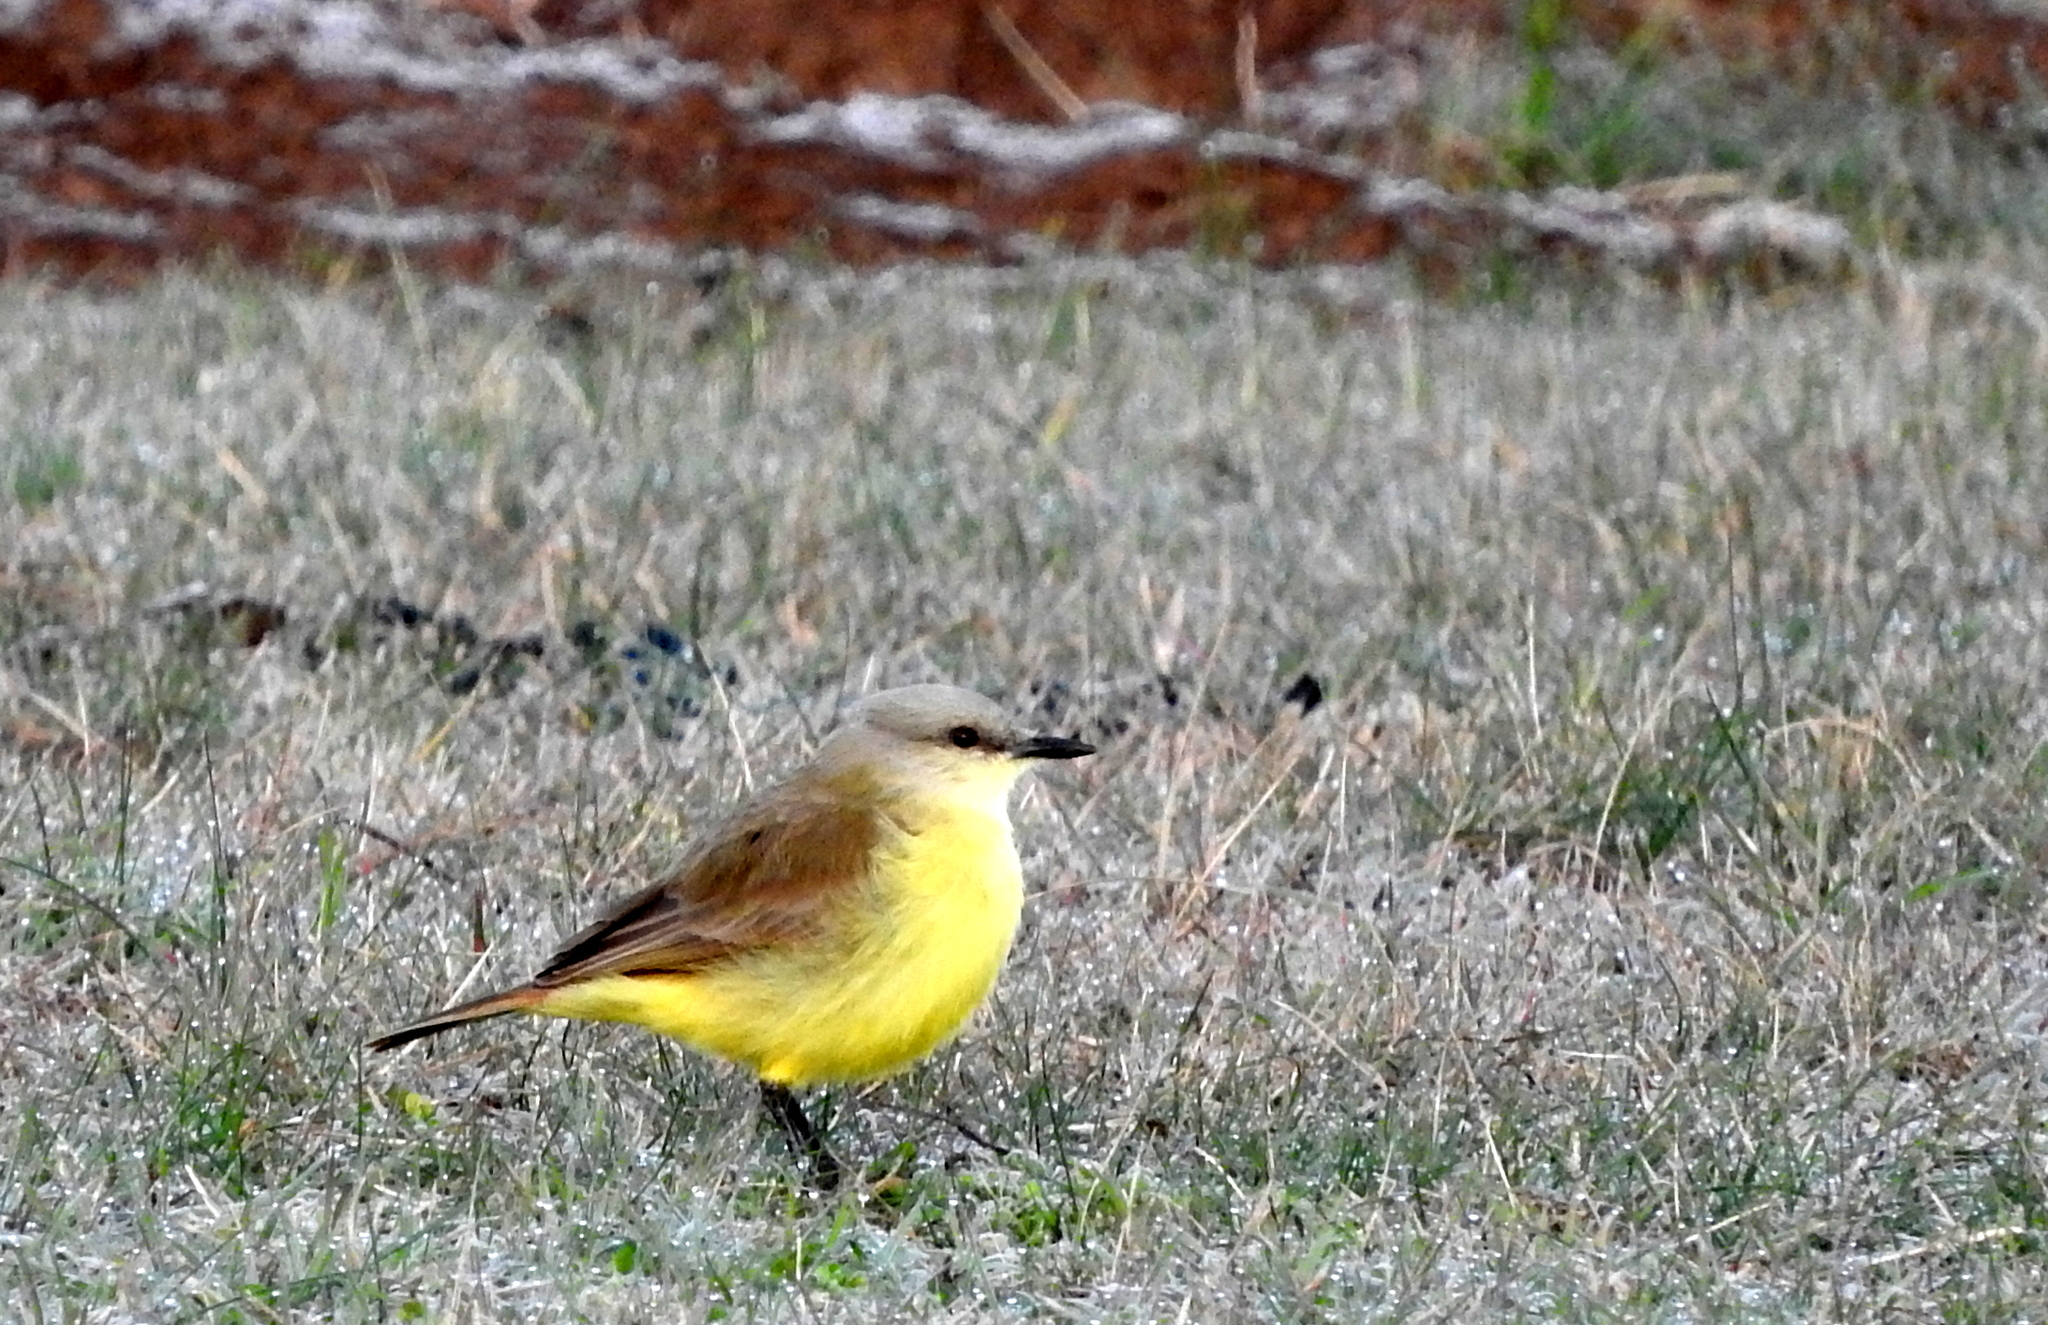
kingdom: Animalia
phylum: Chordata
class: Aves
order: Passeriformes
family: Tyrannidae
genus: Machetornis
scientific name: Machetornis rixosa
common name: Cattle tyrant
